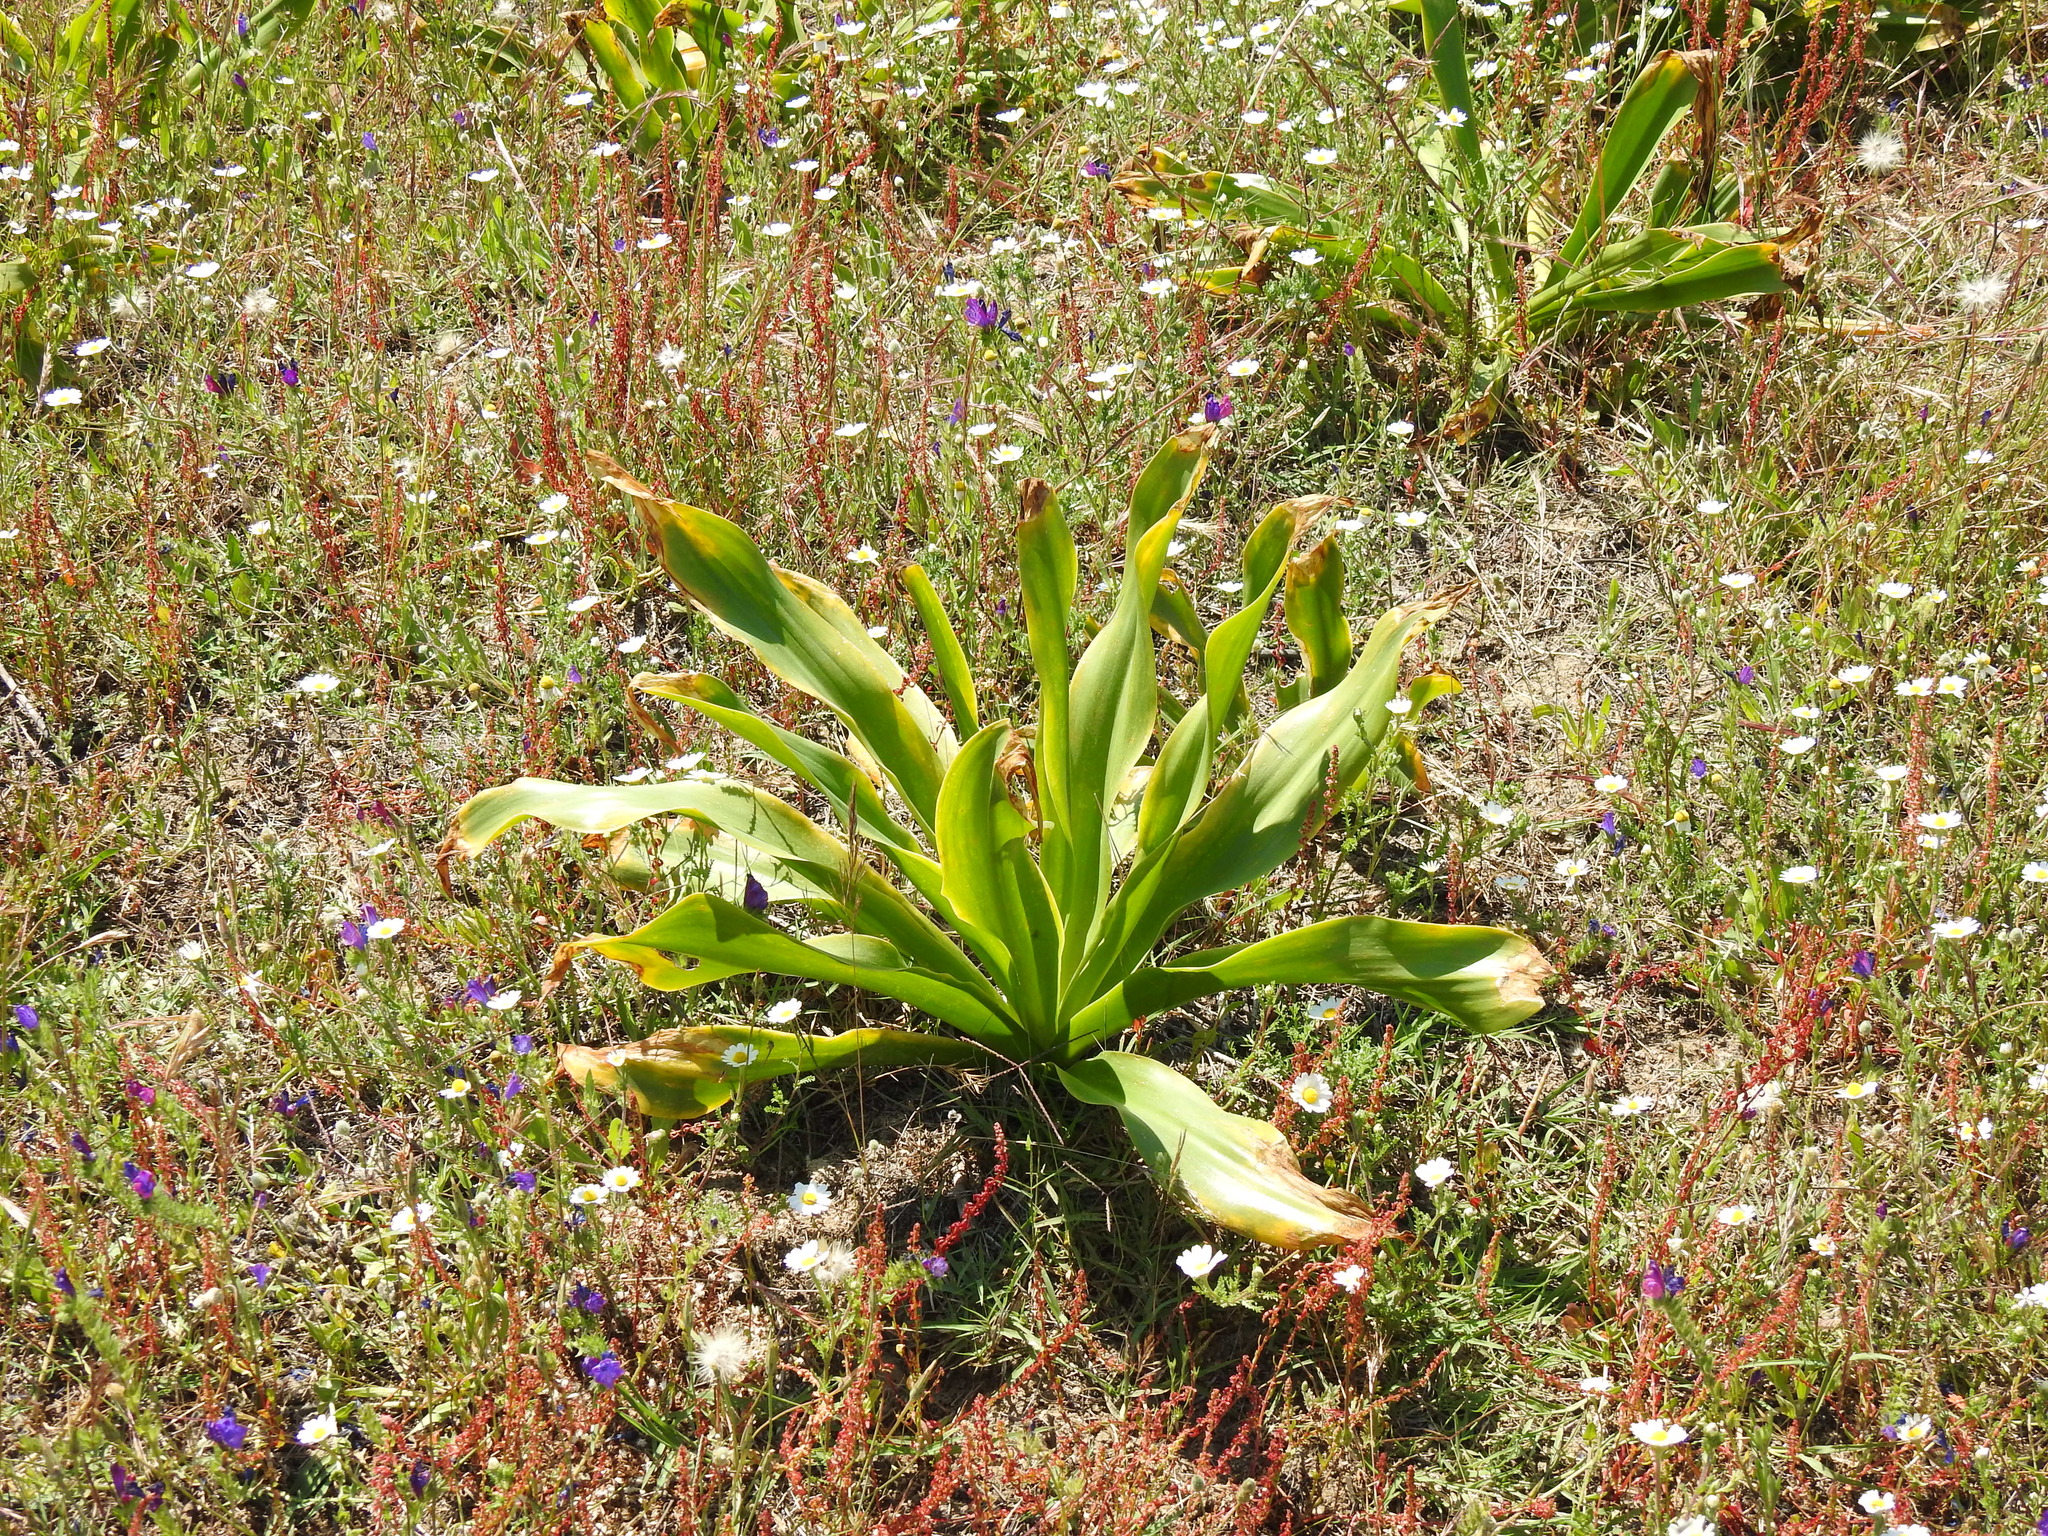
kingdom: Plantae
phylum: Tracheophyta
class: Liliopsida
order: Asparagales
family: Asparagaceae
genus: Drimia
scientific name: Drimia maritima
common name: Maritime squill
